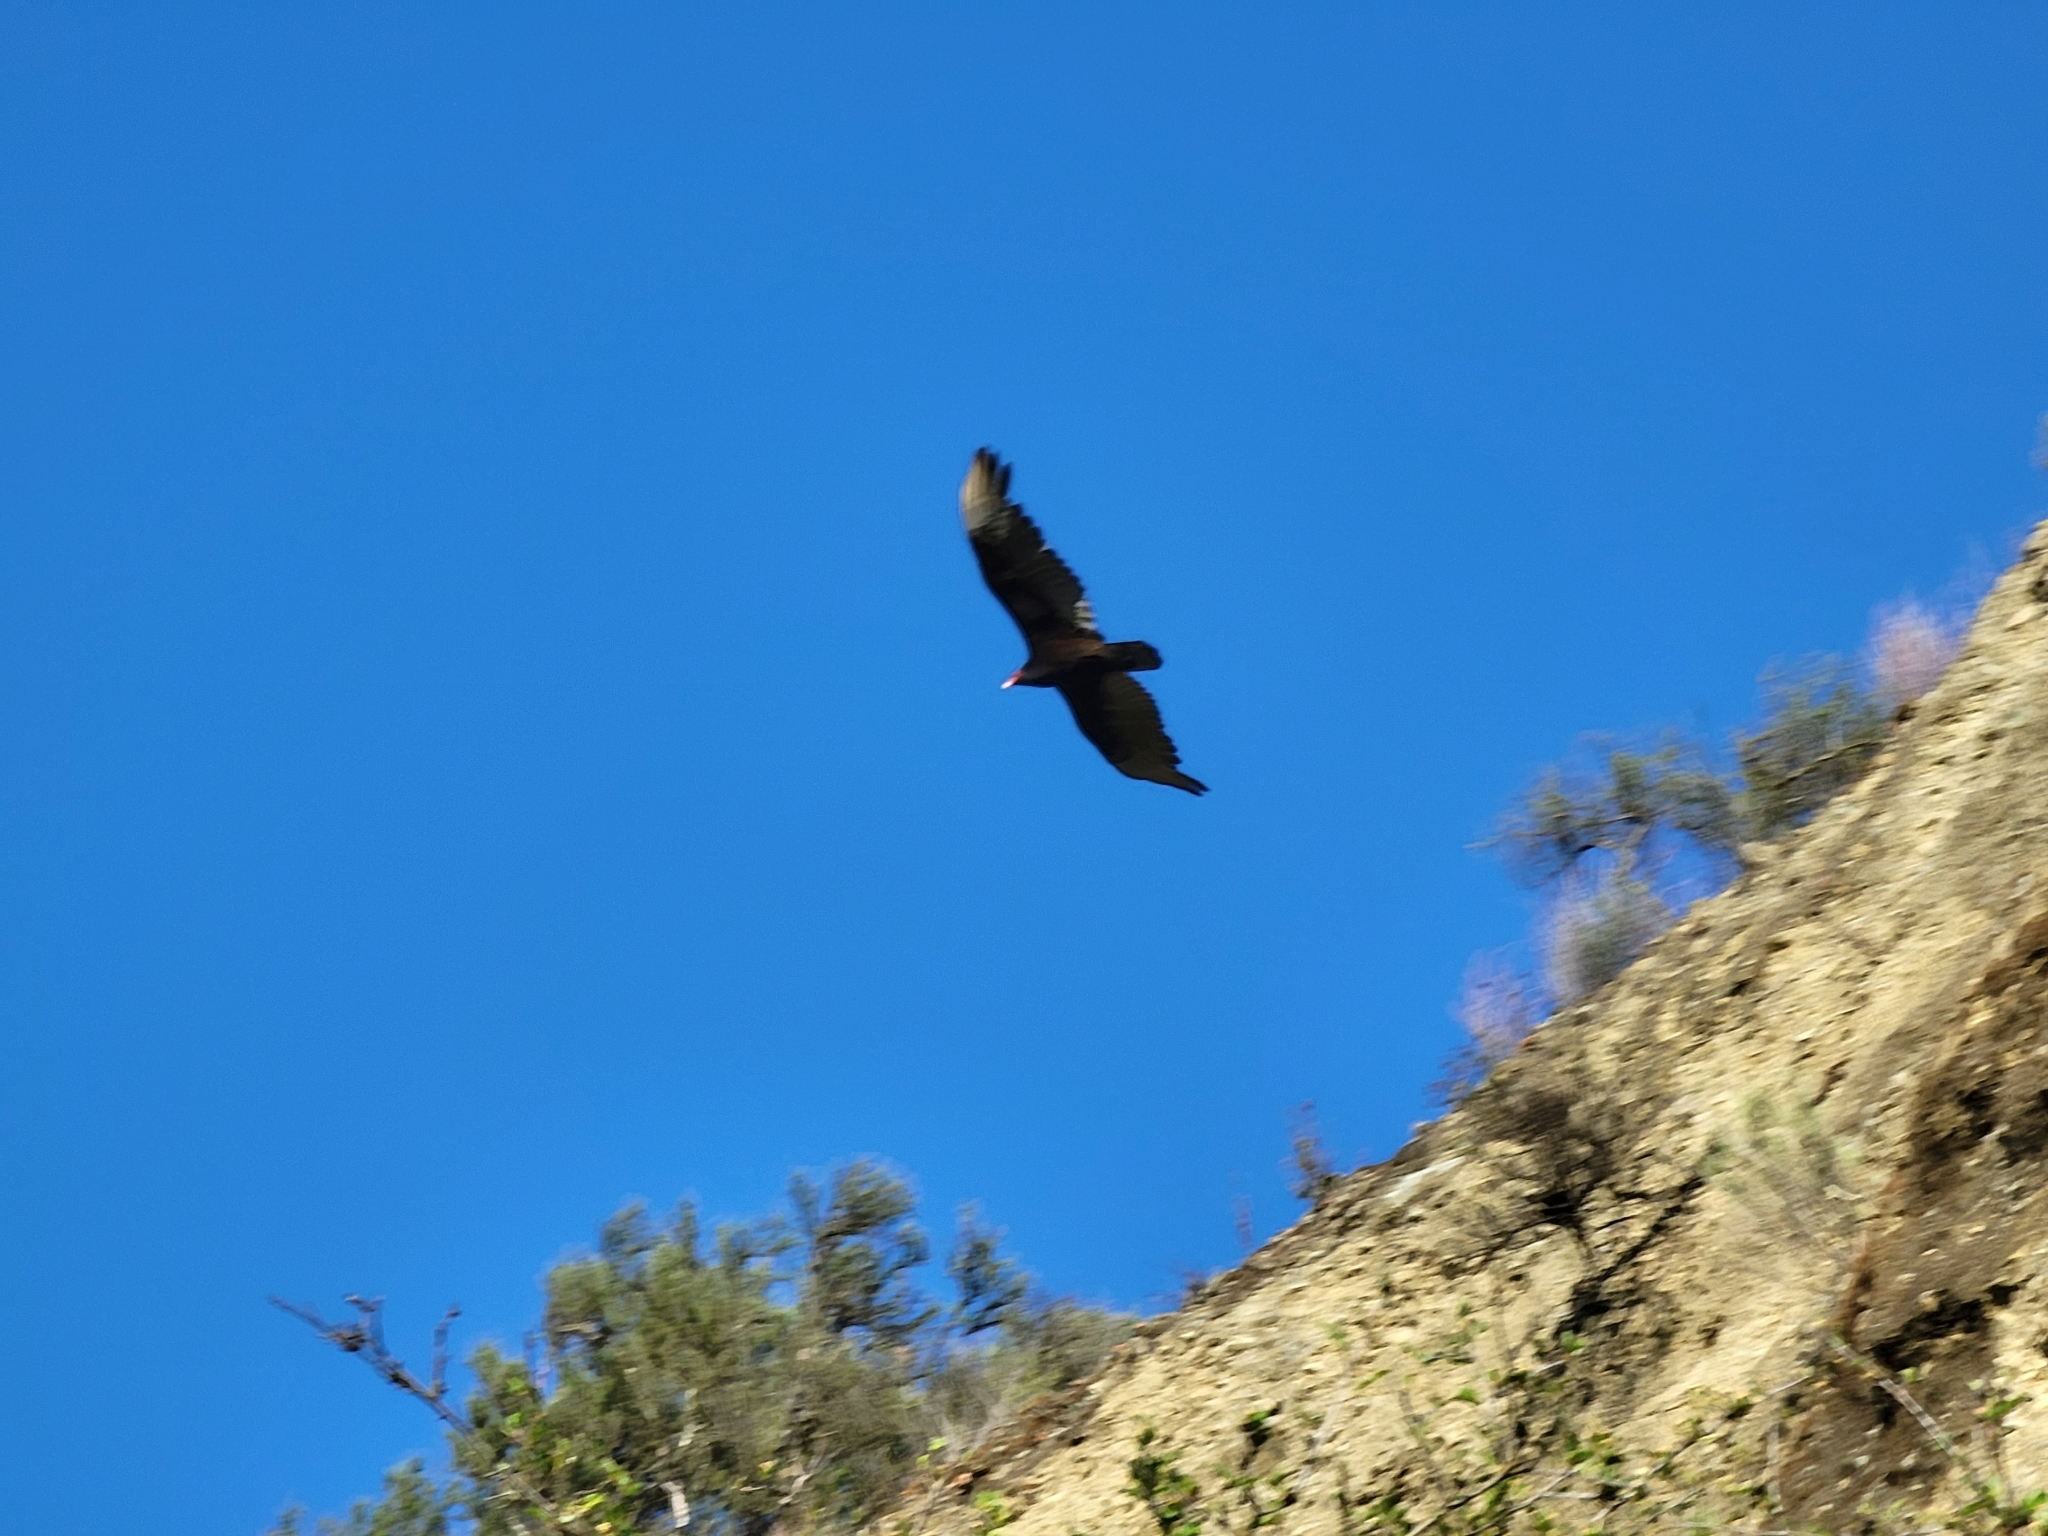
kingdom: Animalia
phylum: Chordata
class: Aves
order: Accipitriformes
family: Cathartidae
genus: Cathartes
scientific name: Cathartes aura
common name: Turkey vulture
